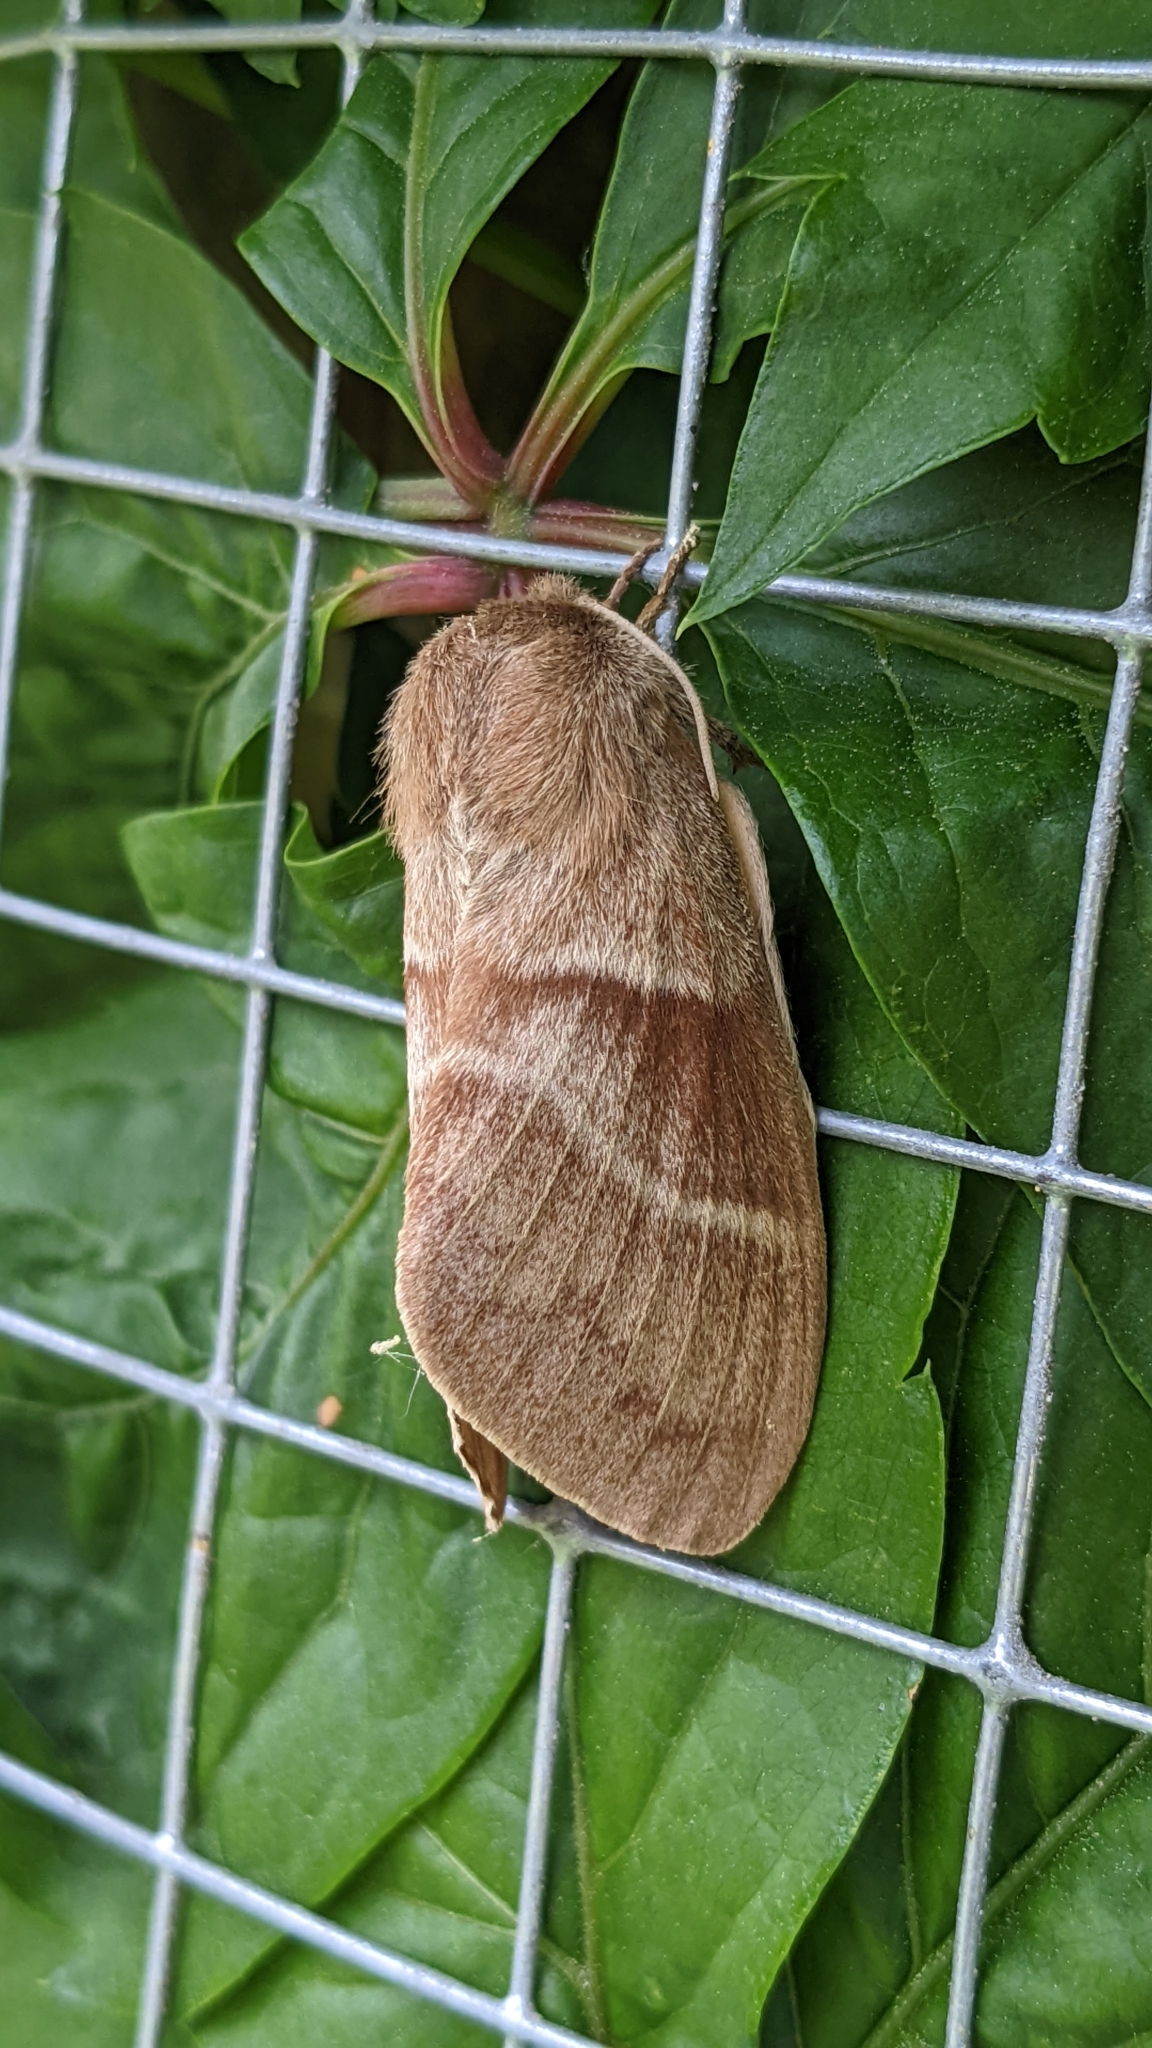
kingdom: Animalia
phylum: Arthropoda
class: Insecta
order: Lepidoptera
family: Lasiocampidae
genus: Macrothylacia
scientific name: Macrothylacia rubi
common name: Fox moth
